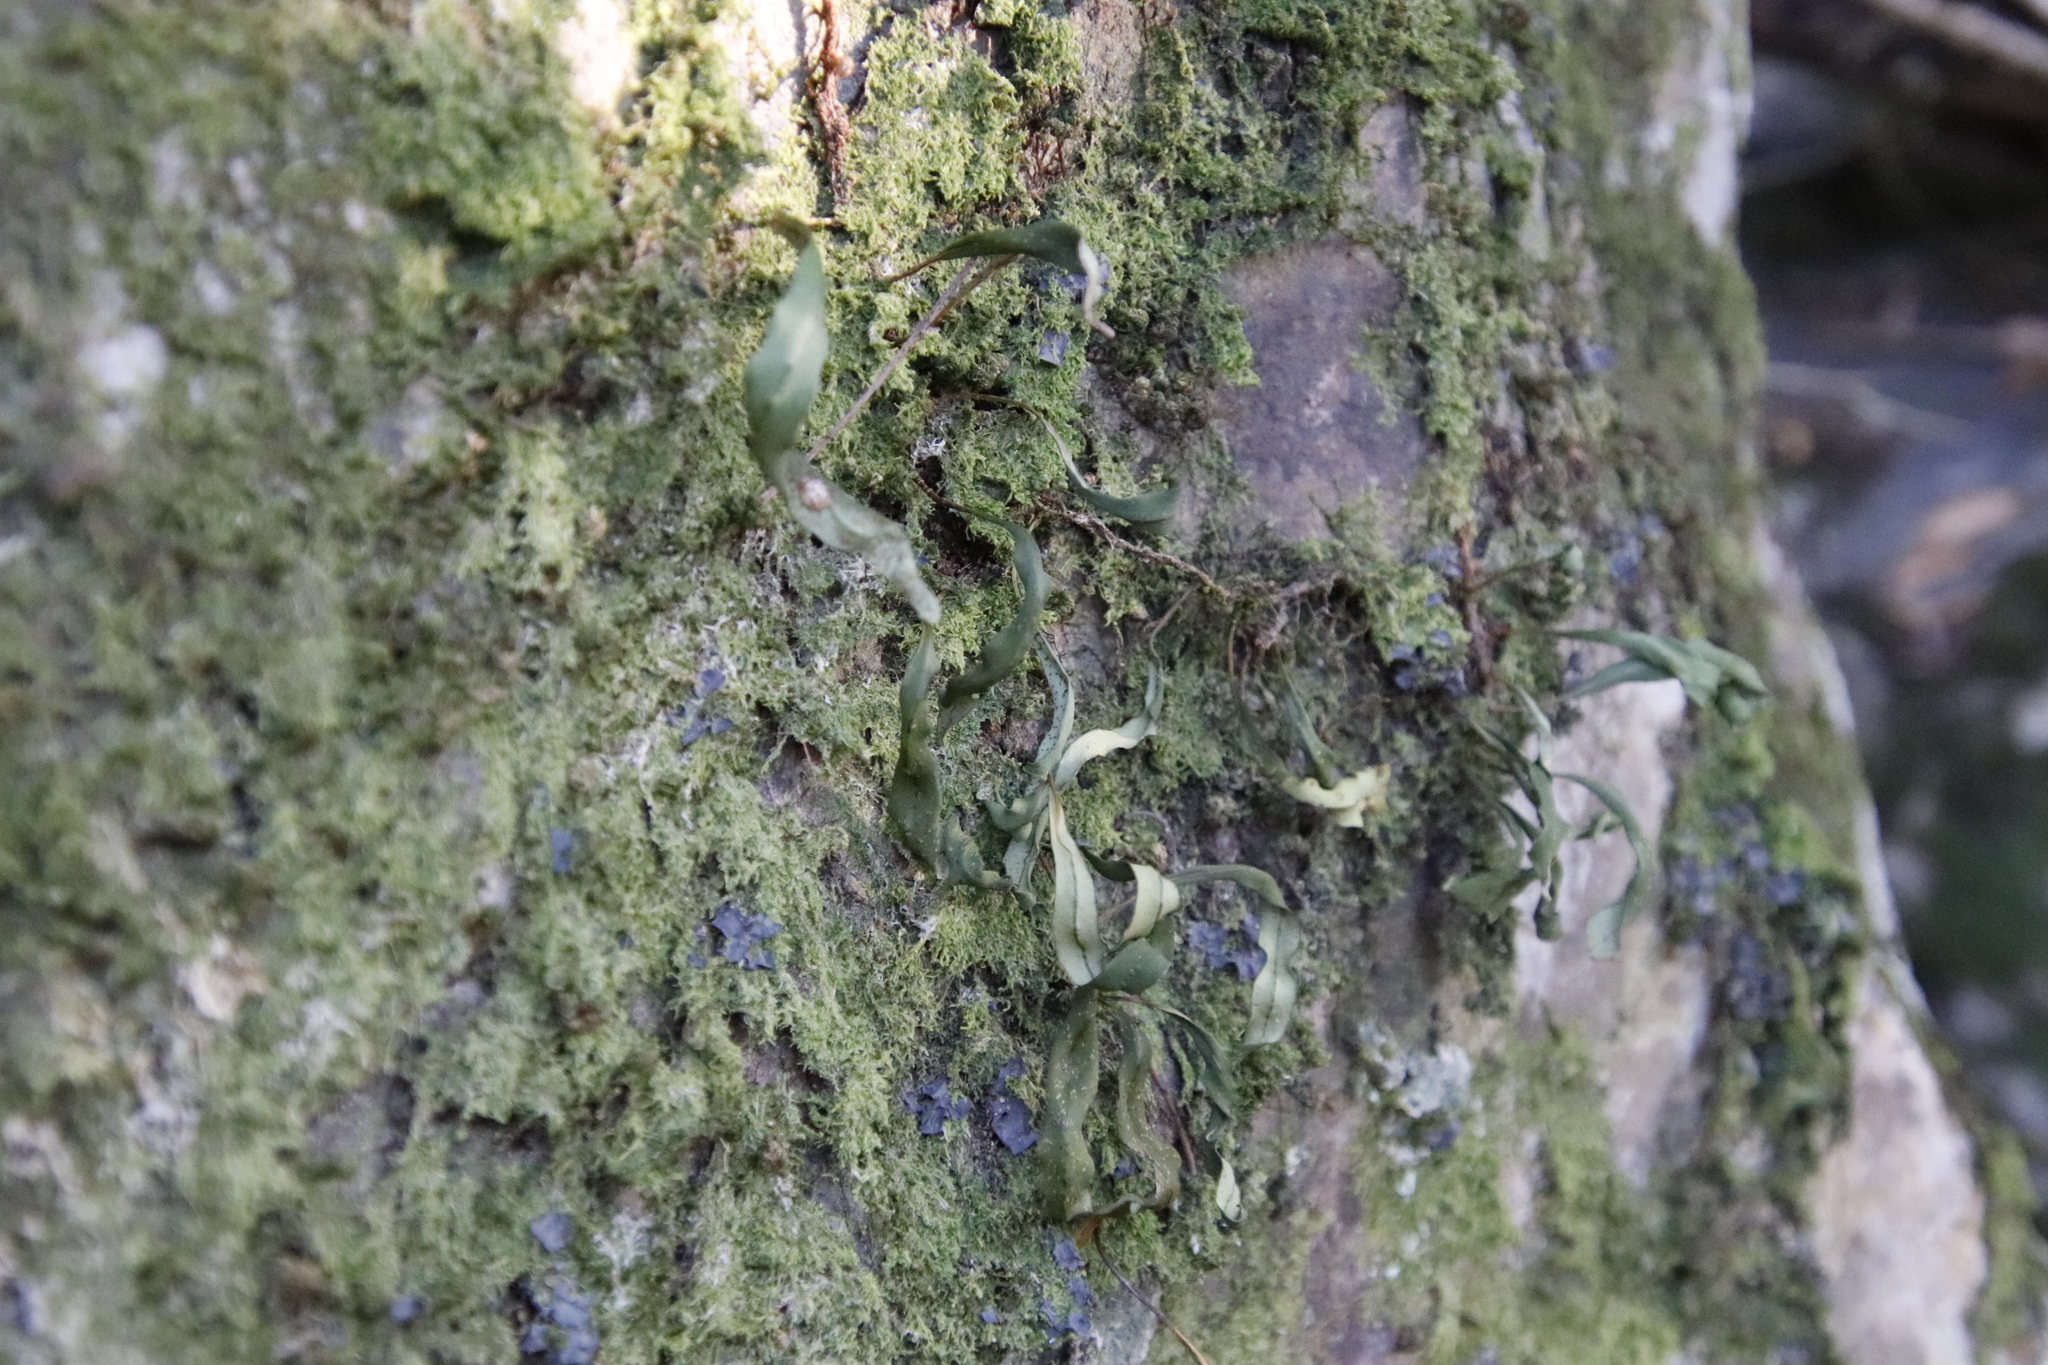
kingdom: Plantae
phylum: Tracheophyta
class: Polypodiopsida
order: Polypodiales
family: Polypodiaceae
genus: Pleopeltis
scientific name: Pleopeltis macrocarpa
